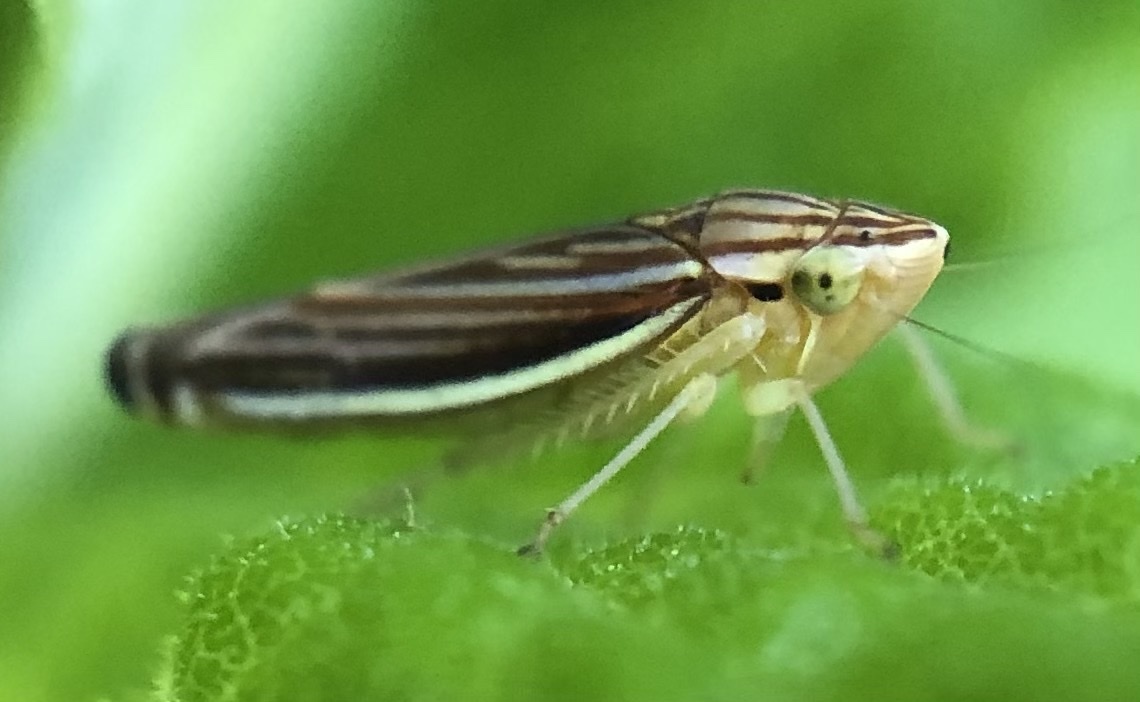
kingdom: Animalia
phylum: Arthropoda
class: Insecta
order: Hemiptera
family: Cicadellidae
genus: Sibovia
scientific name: Sibovia occatoria
